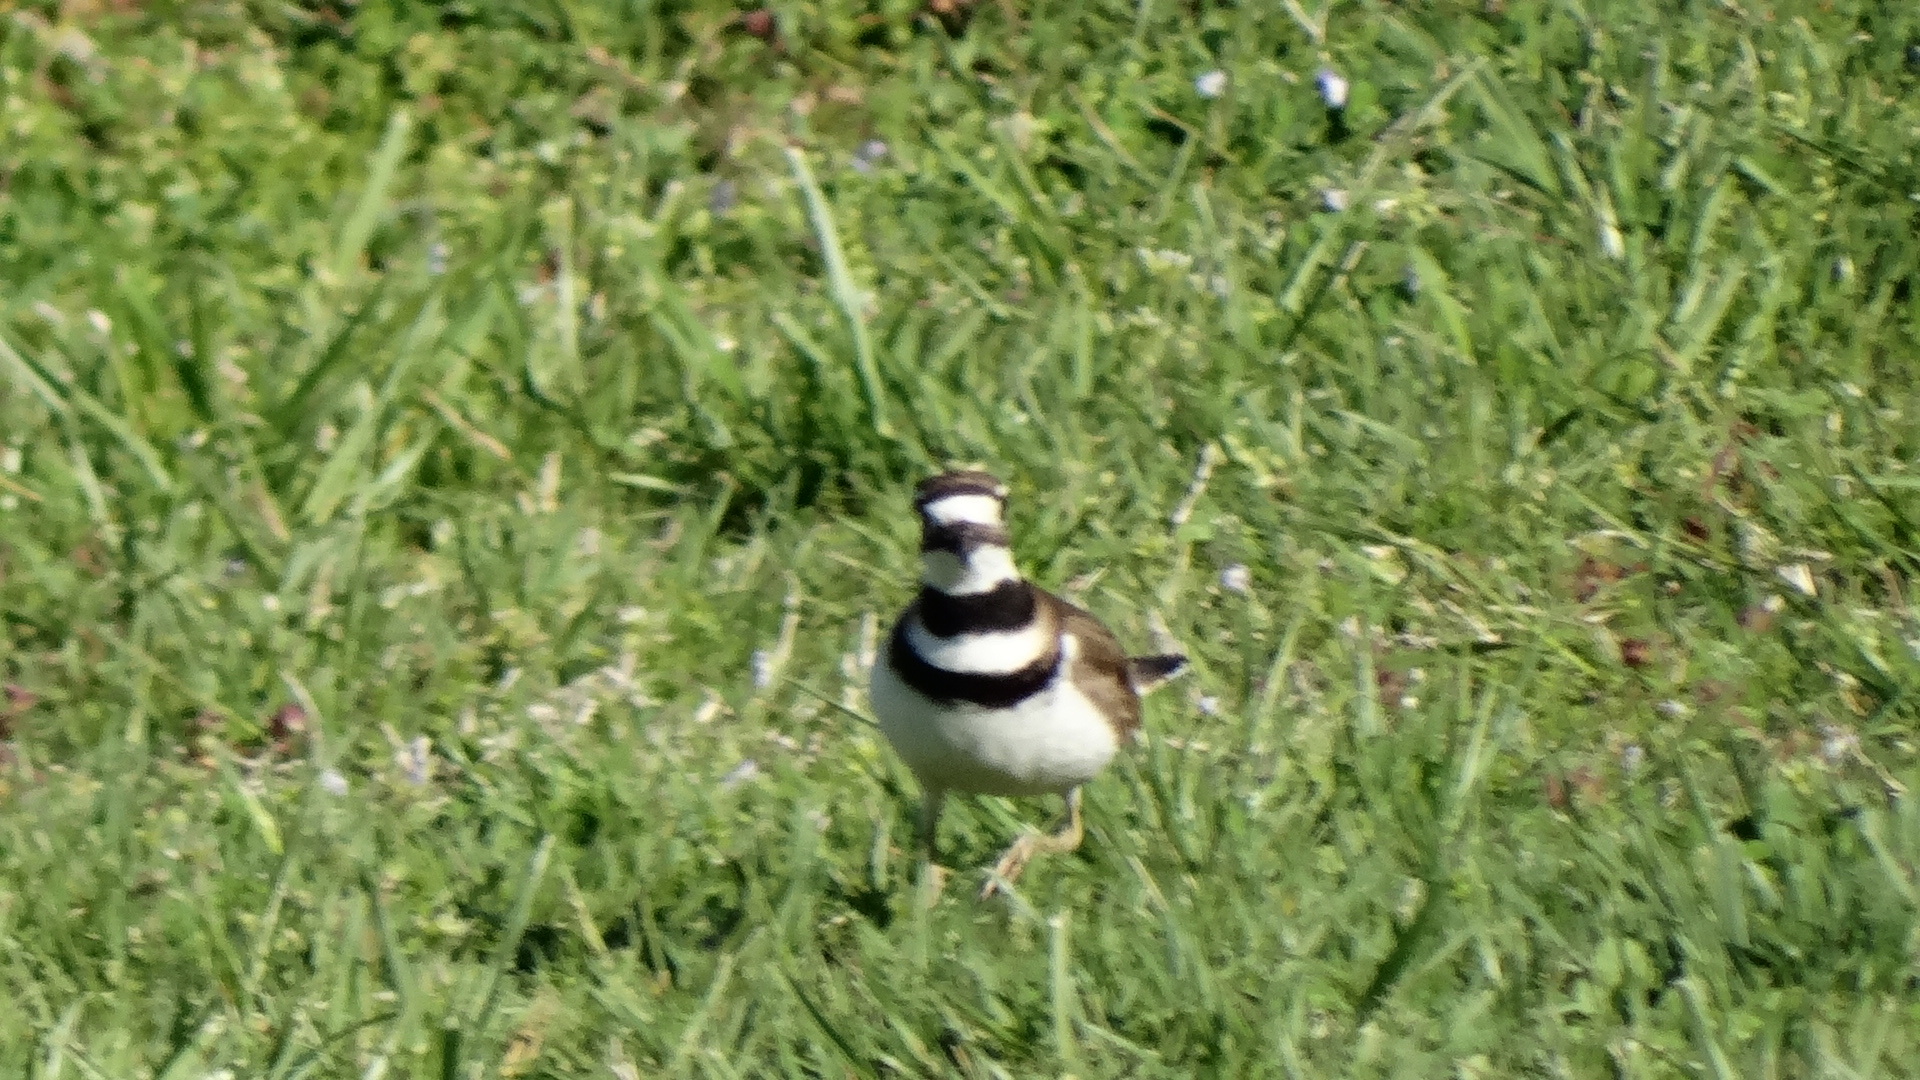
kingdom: Animalia
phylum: Chordata
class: Aves
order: Charadriiformes
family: Charadriidae
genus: Charadrius
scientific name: Charadrius vociferus
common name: Killdeer
